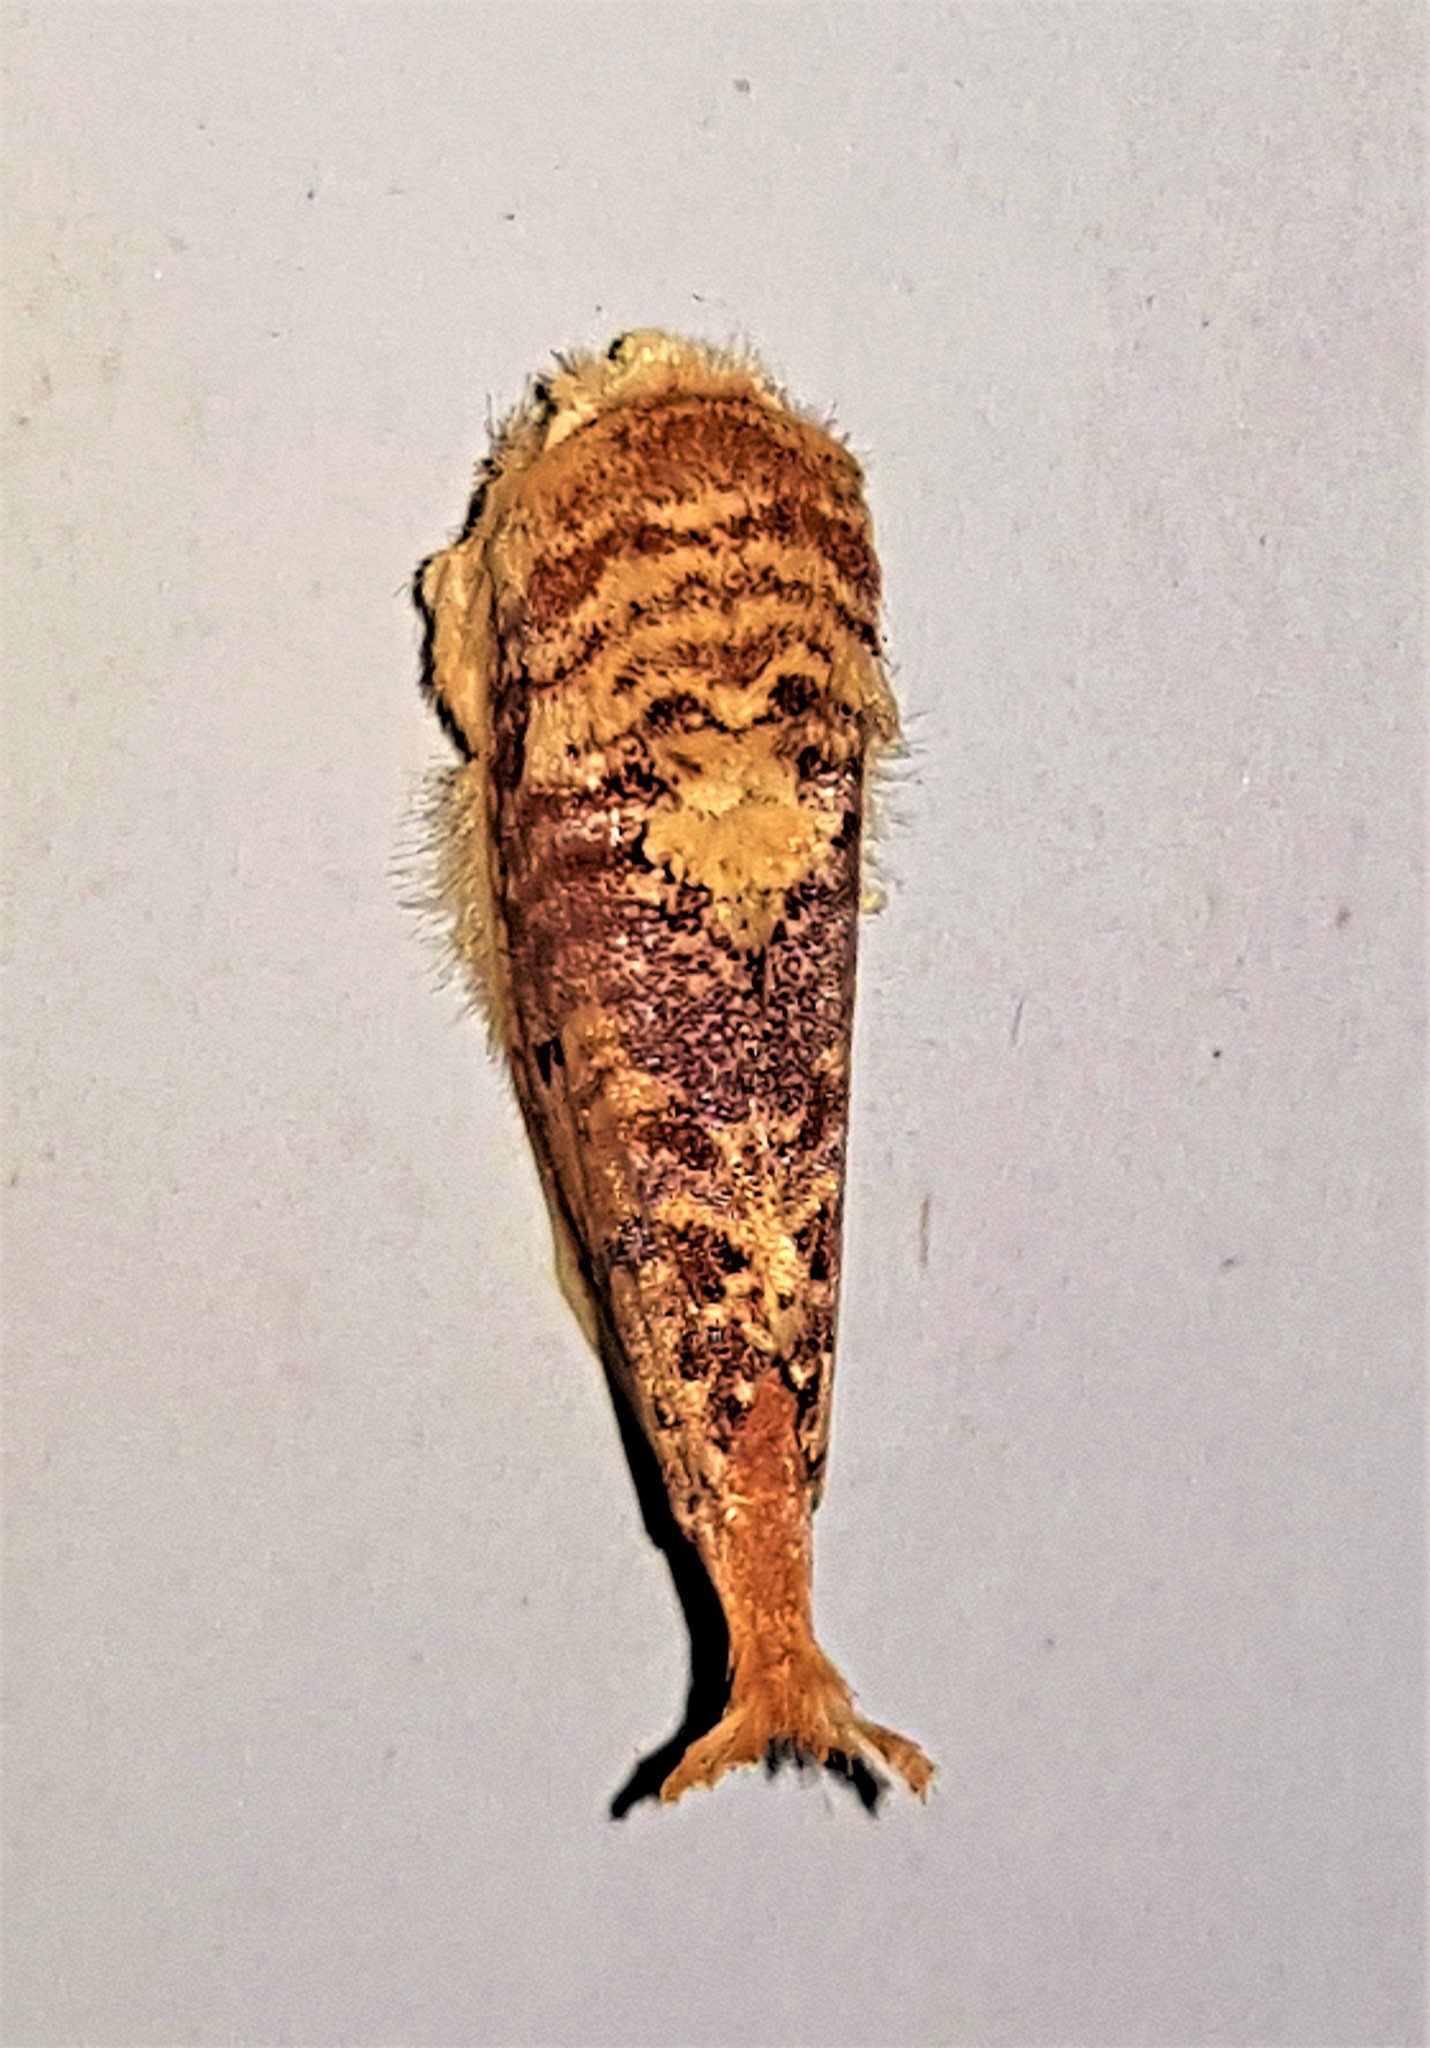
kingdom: Animalia
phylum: Arthropoda
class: Insecta
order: Lepidoptera
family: Notodontidae
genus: Magava
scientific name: Magava multilinea
